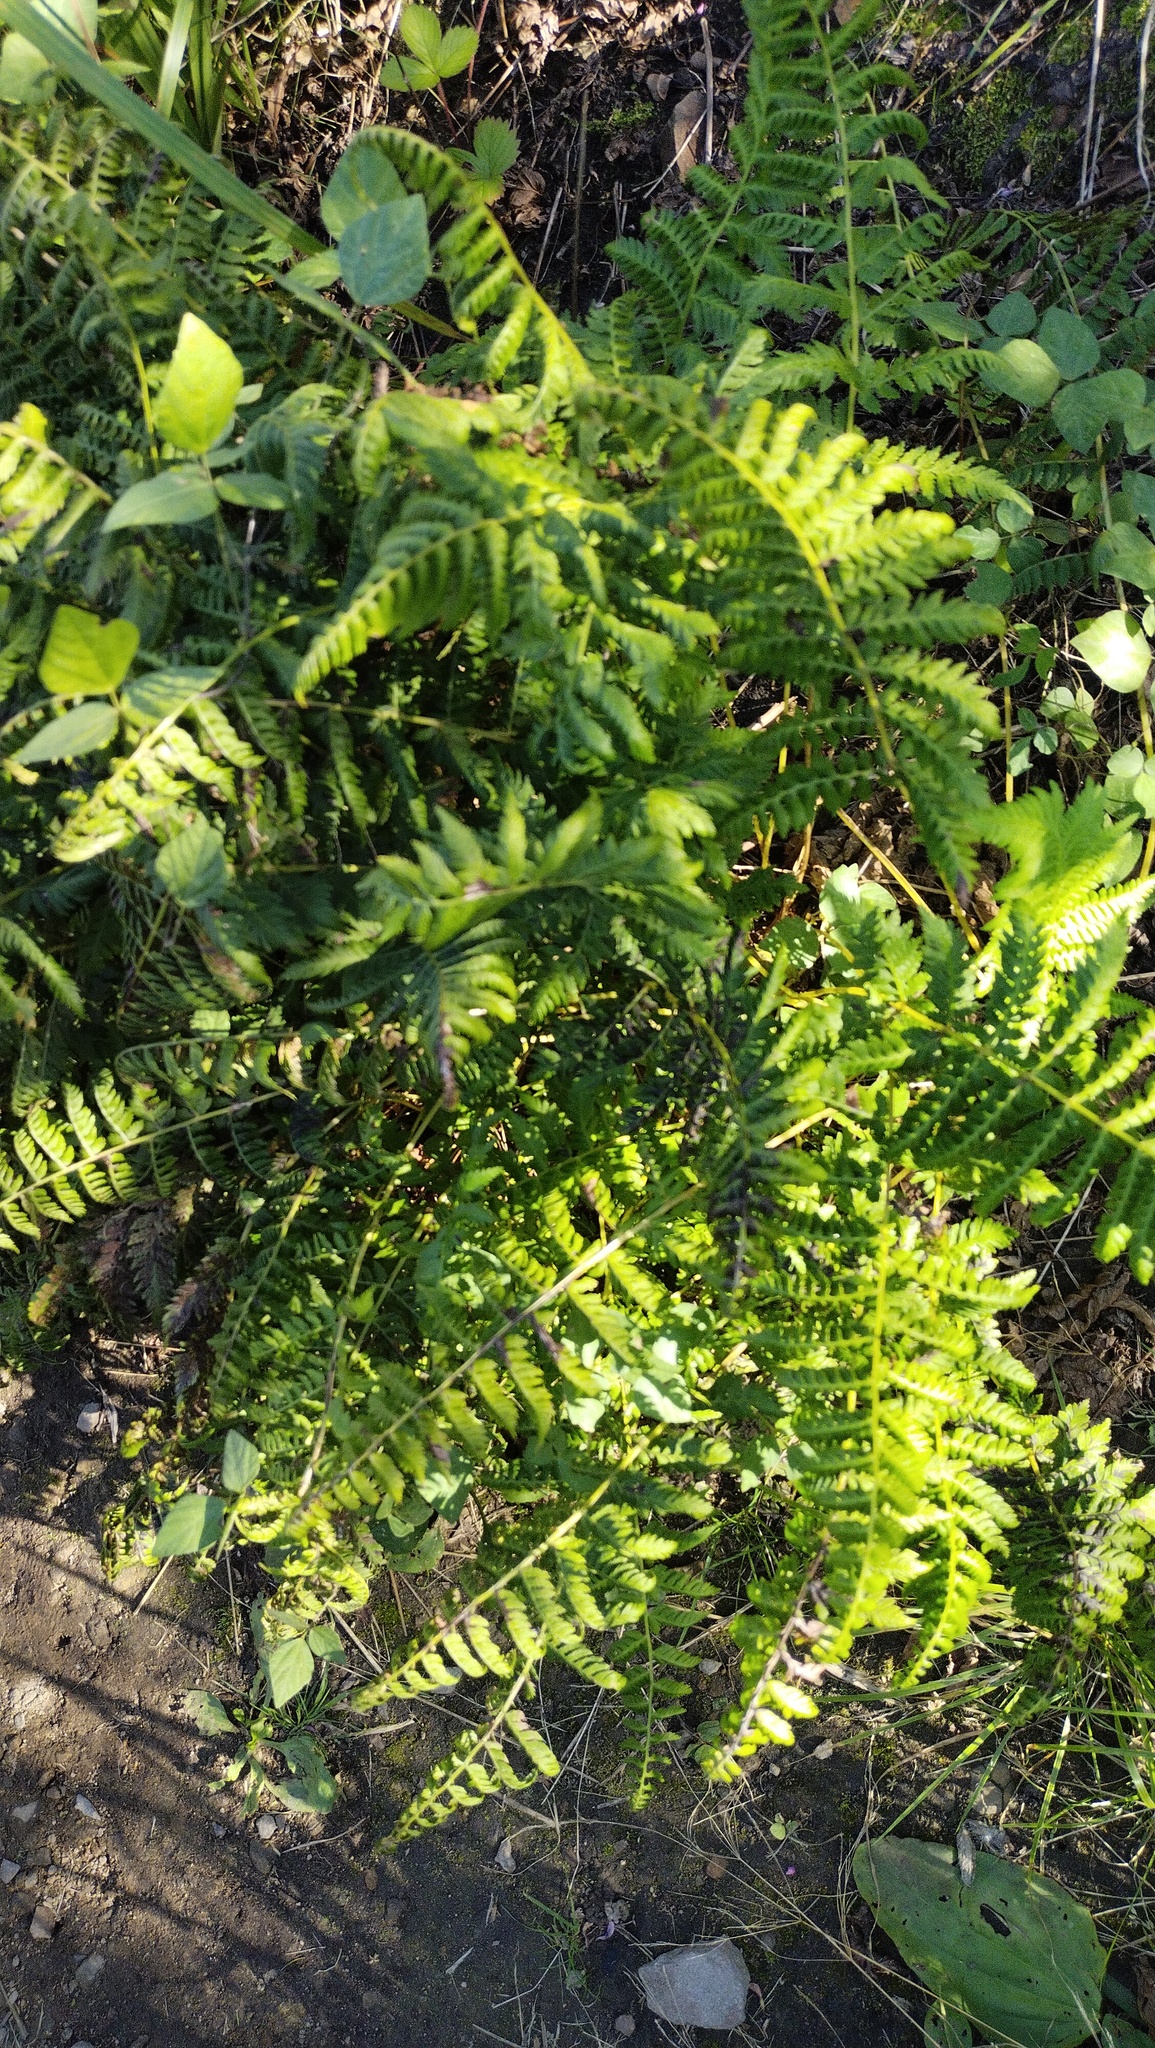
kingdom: Plantae
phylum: Tracheophyta
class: Polypodiopsida
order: Polypodiales
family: Athyriaceae
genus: Athyrium
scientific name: Athyrium yokoscense
